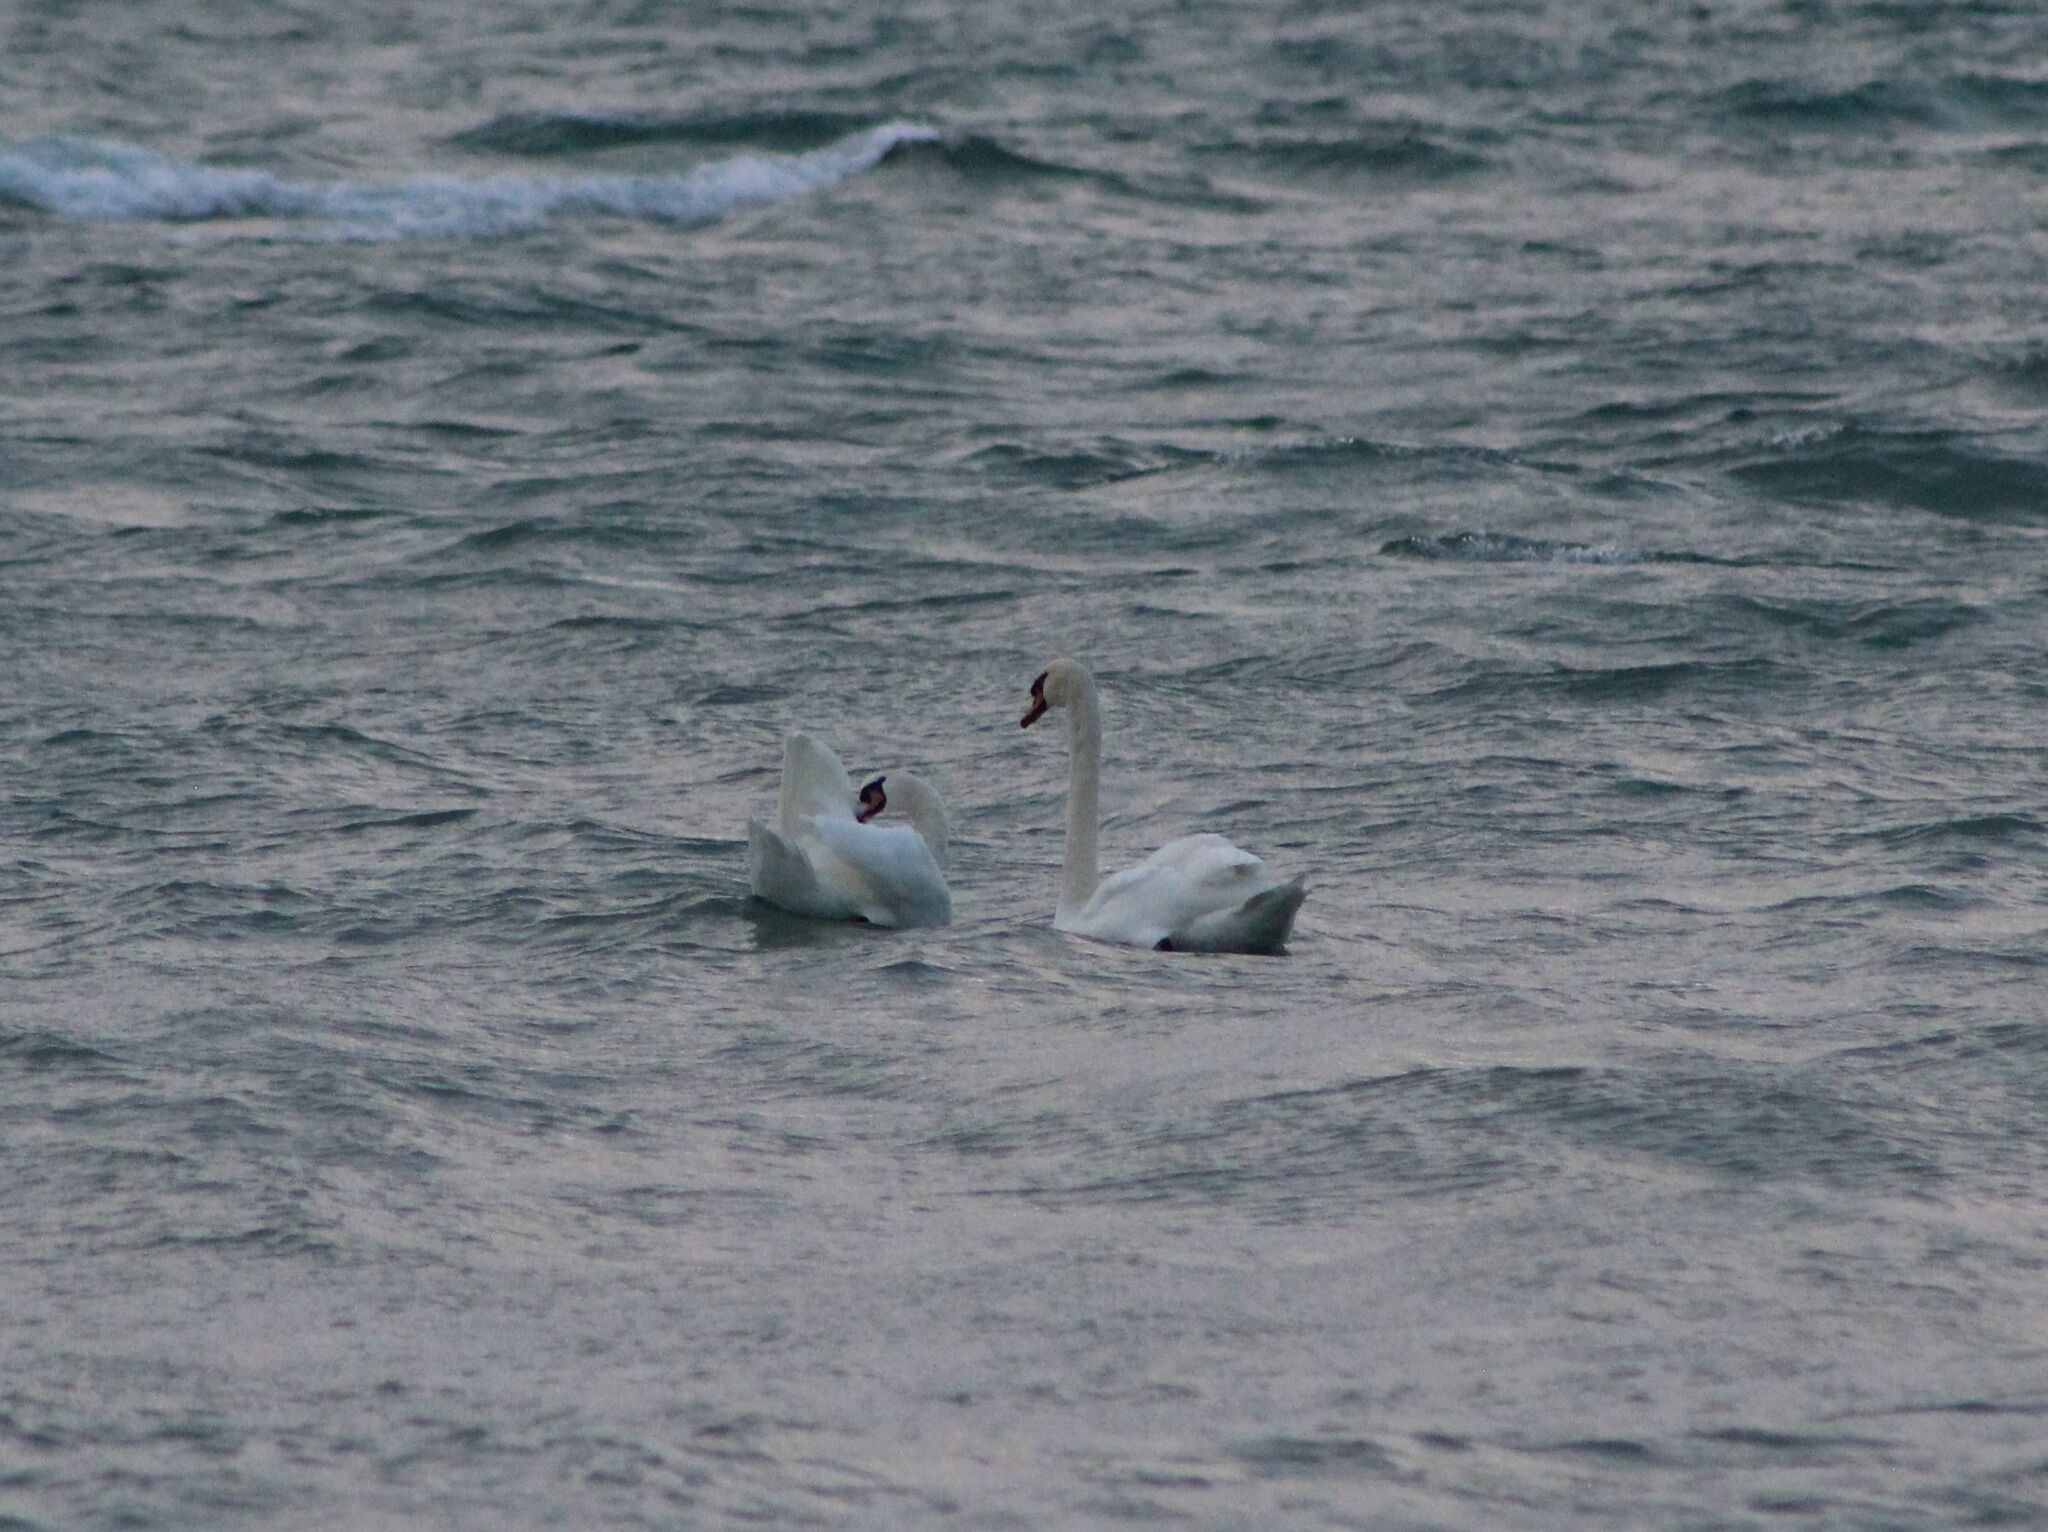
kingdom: Animalia
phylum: Chordata
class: Aves
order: Anseriformes
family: Anatidae
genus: Cygnus
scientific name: Cygnus olor
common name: Mute swan
